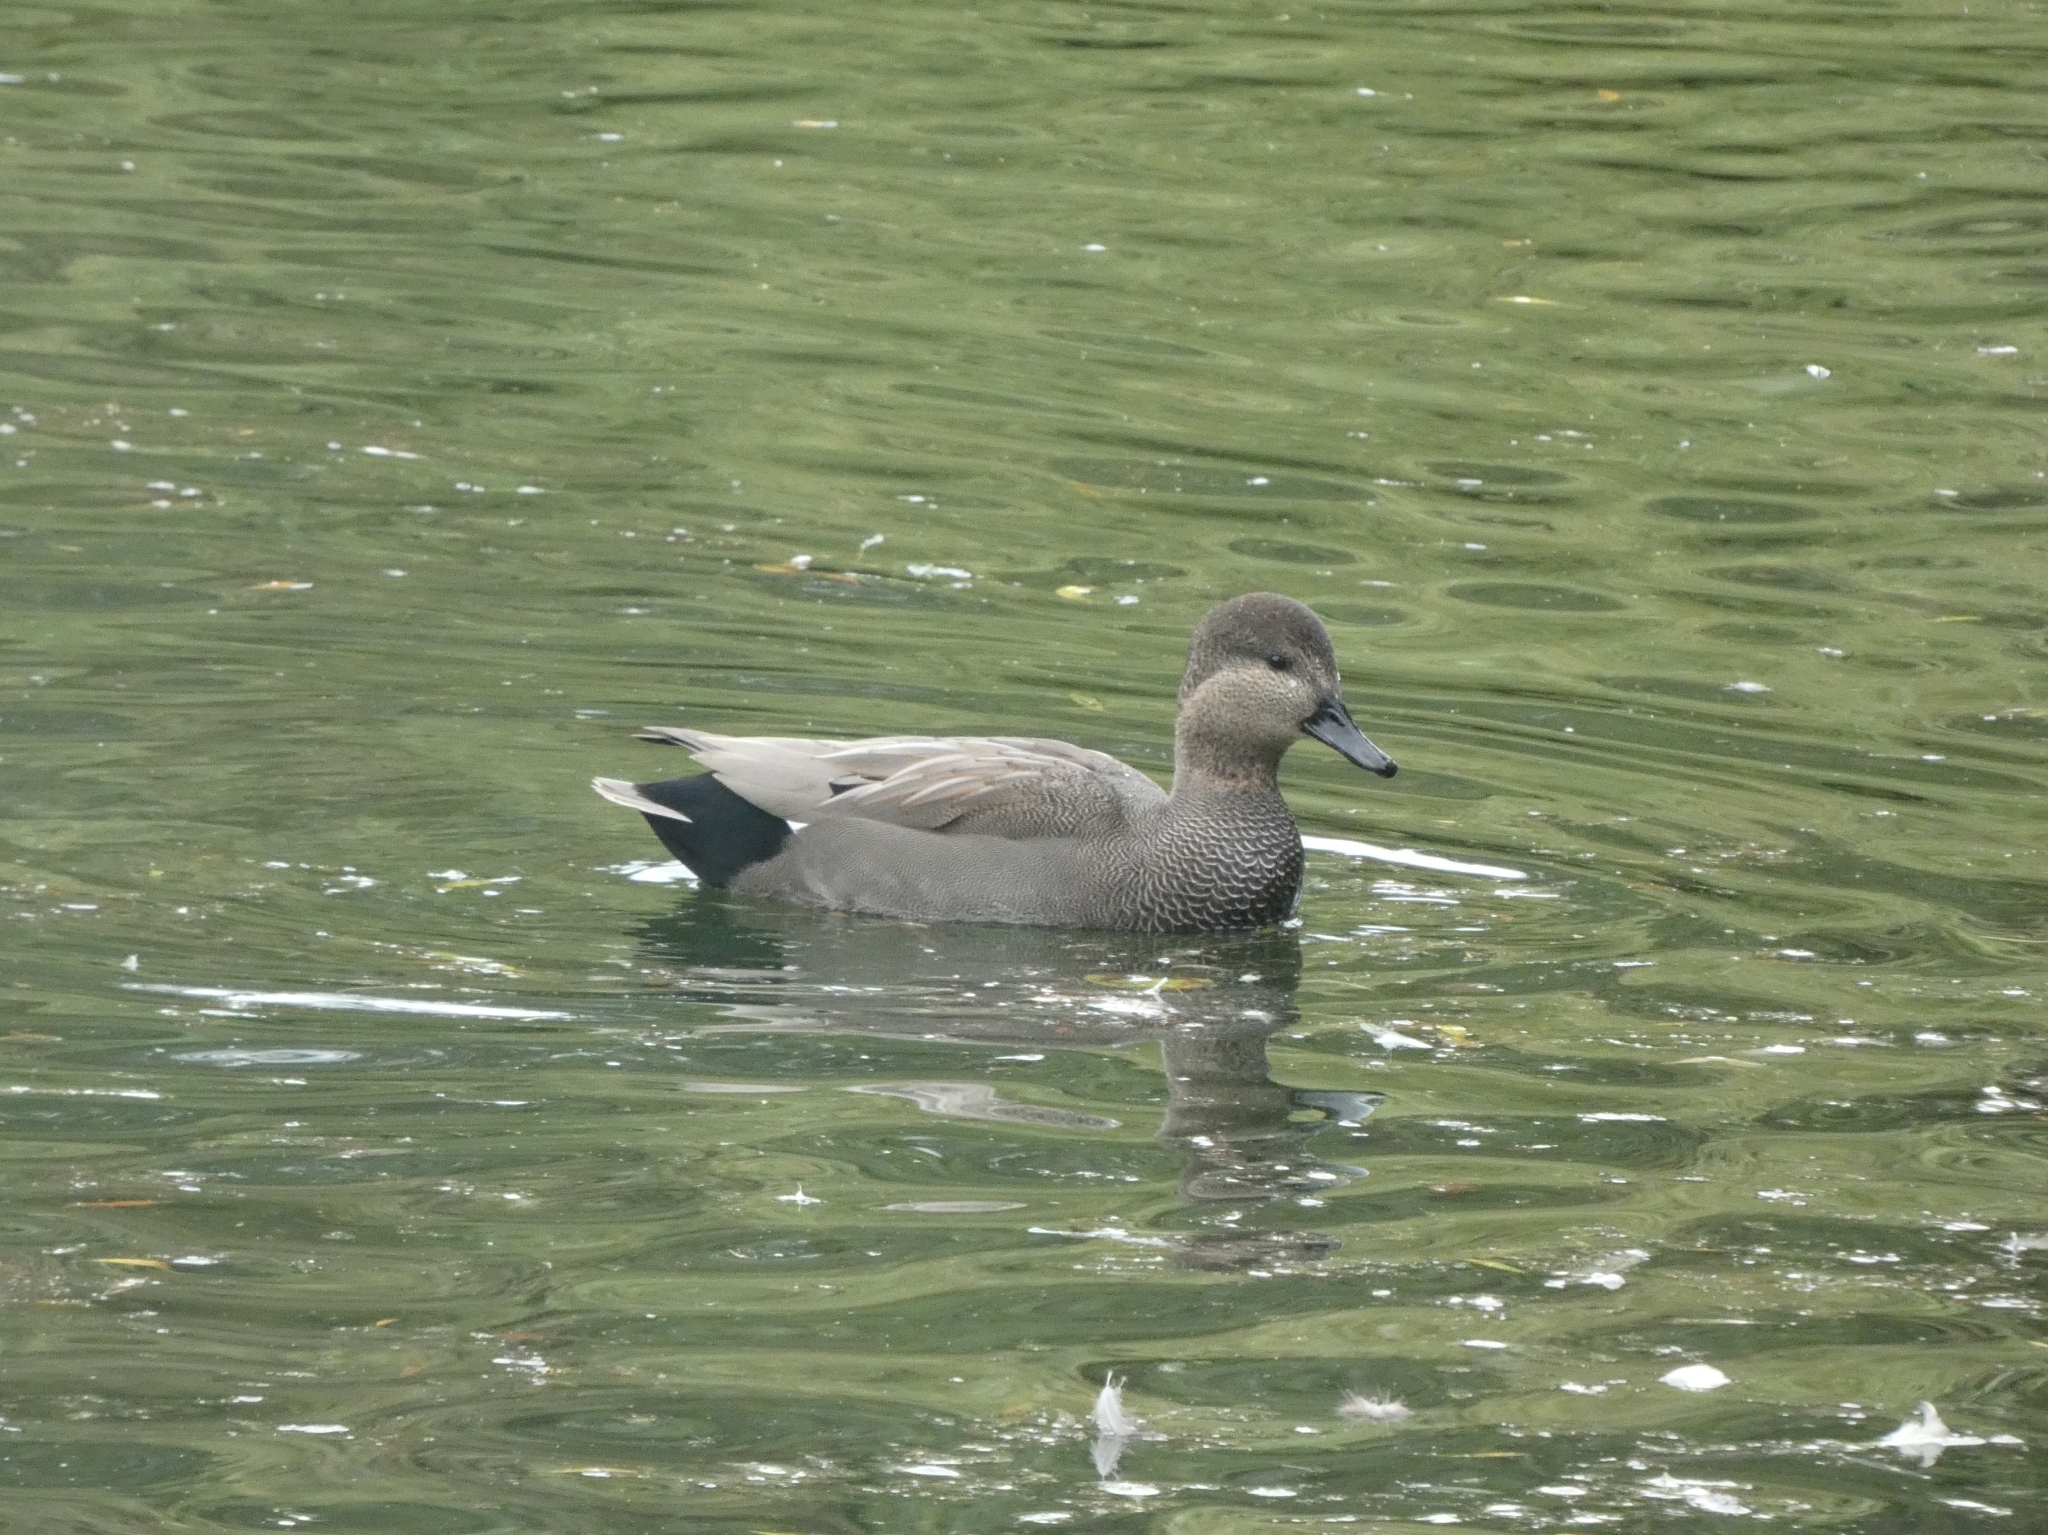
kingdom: Animalia
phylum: Chordata
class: Aves
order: Anseriformes
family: Anatidae
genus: Mareca
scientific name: Mareca strepera
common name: Gadwall
